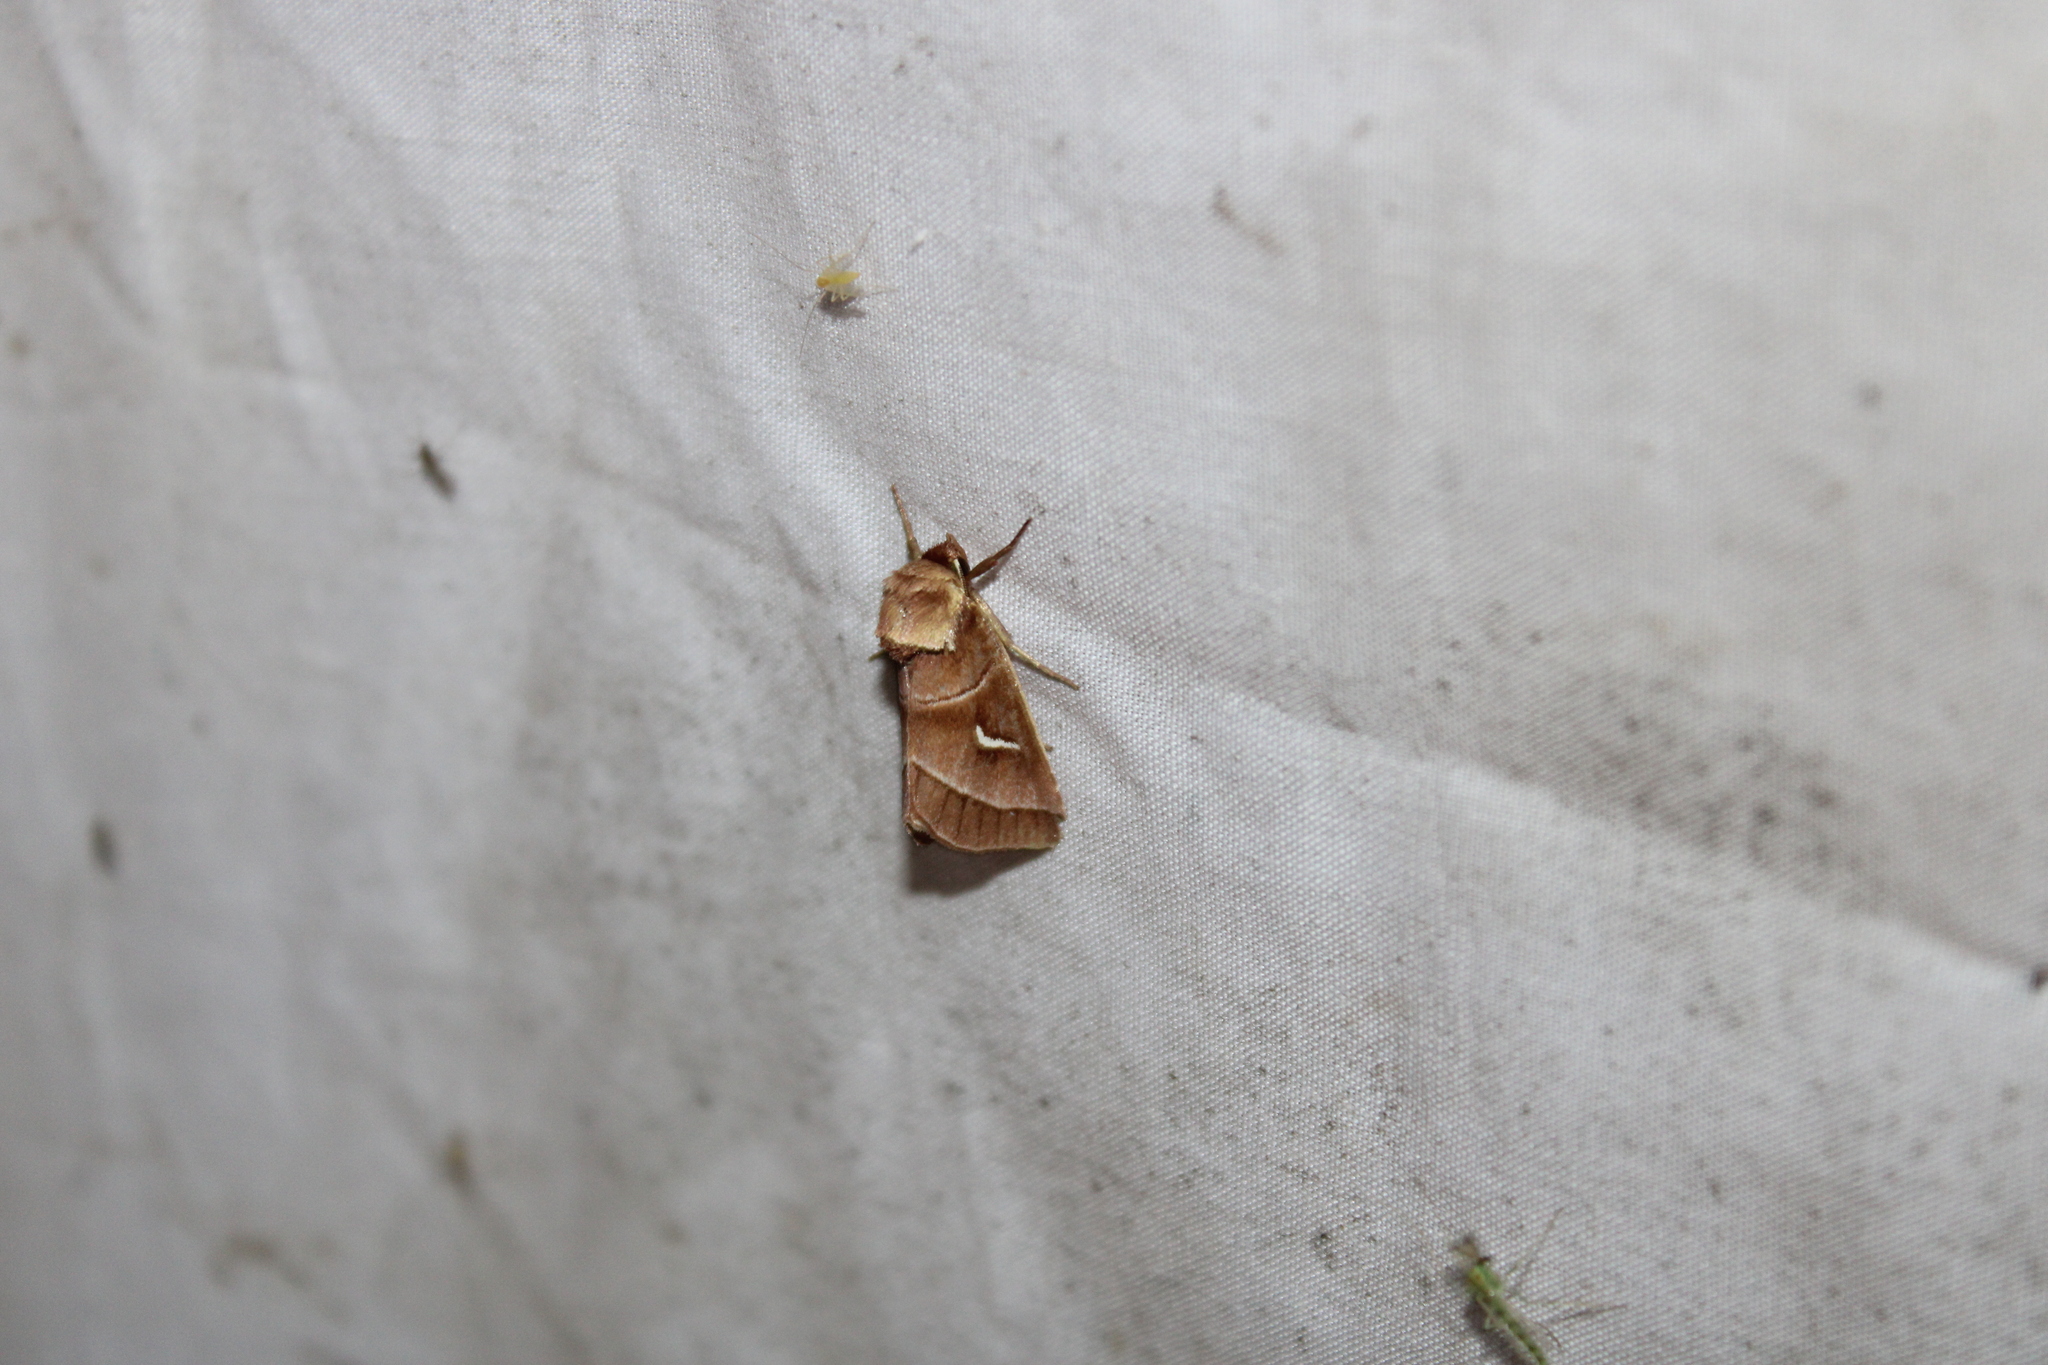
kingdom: Animalia
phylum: Arthropoda
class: Insecta
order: Lepidoptera
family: Noctuidae
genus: Fagitana
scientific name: Fagitana littera
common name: Marsh fern moth
